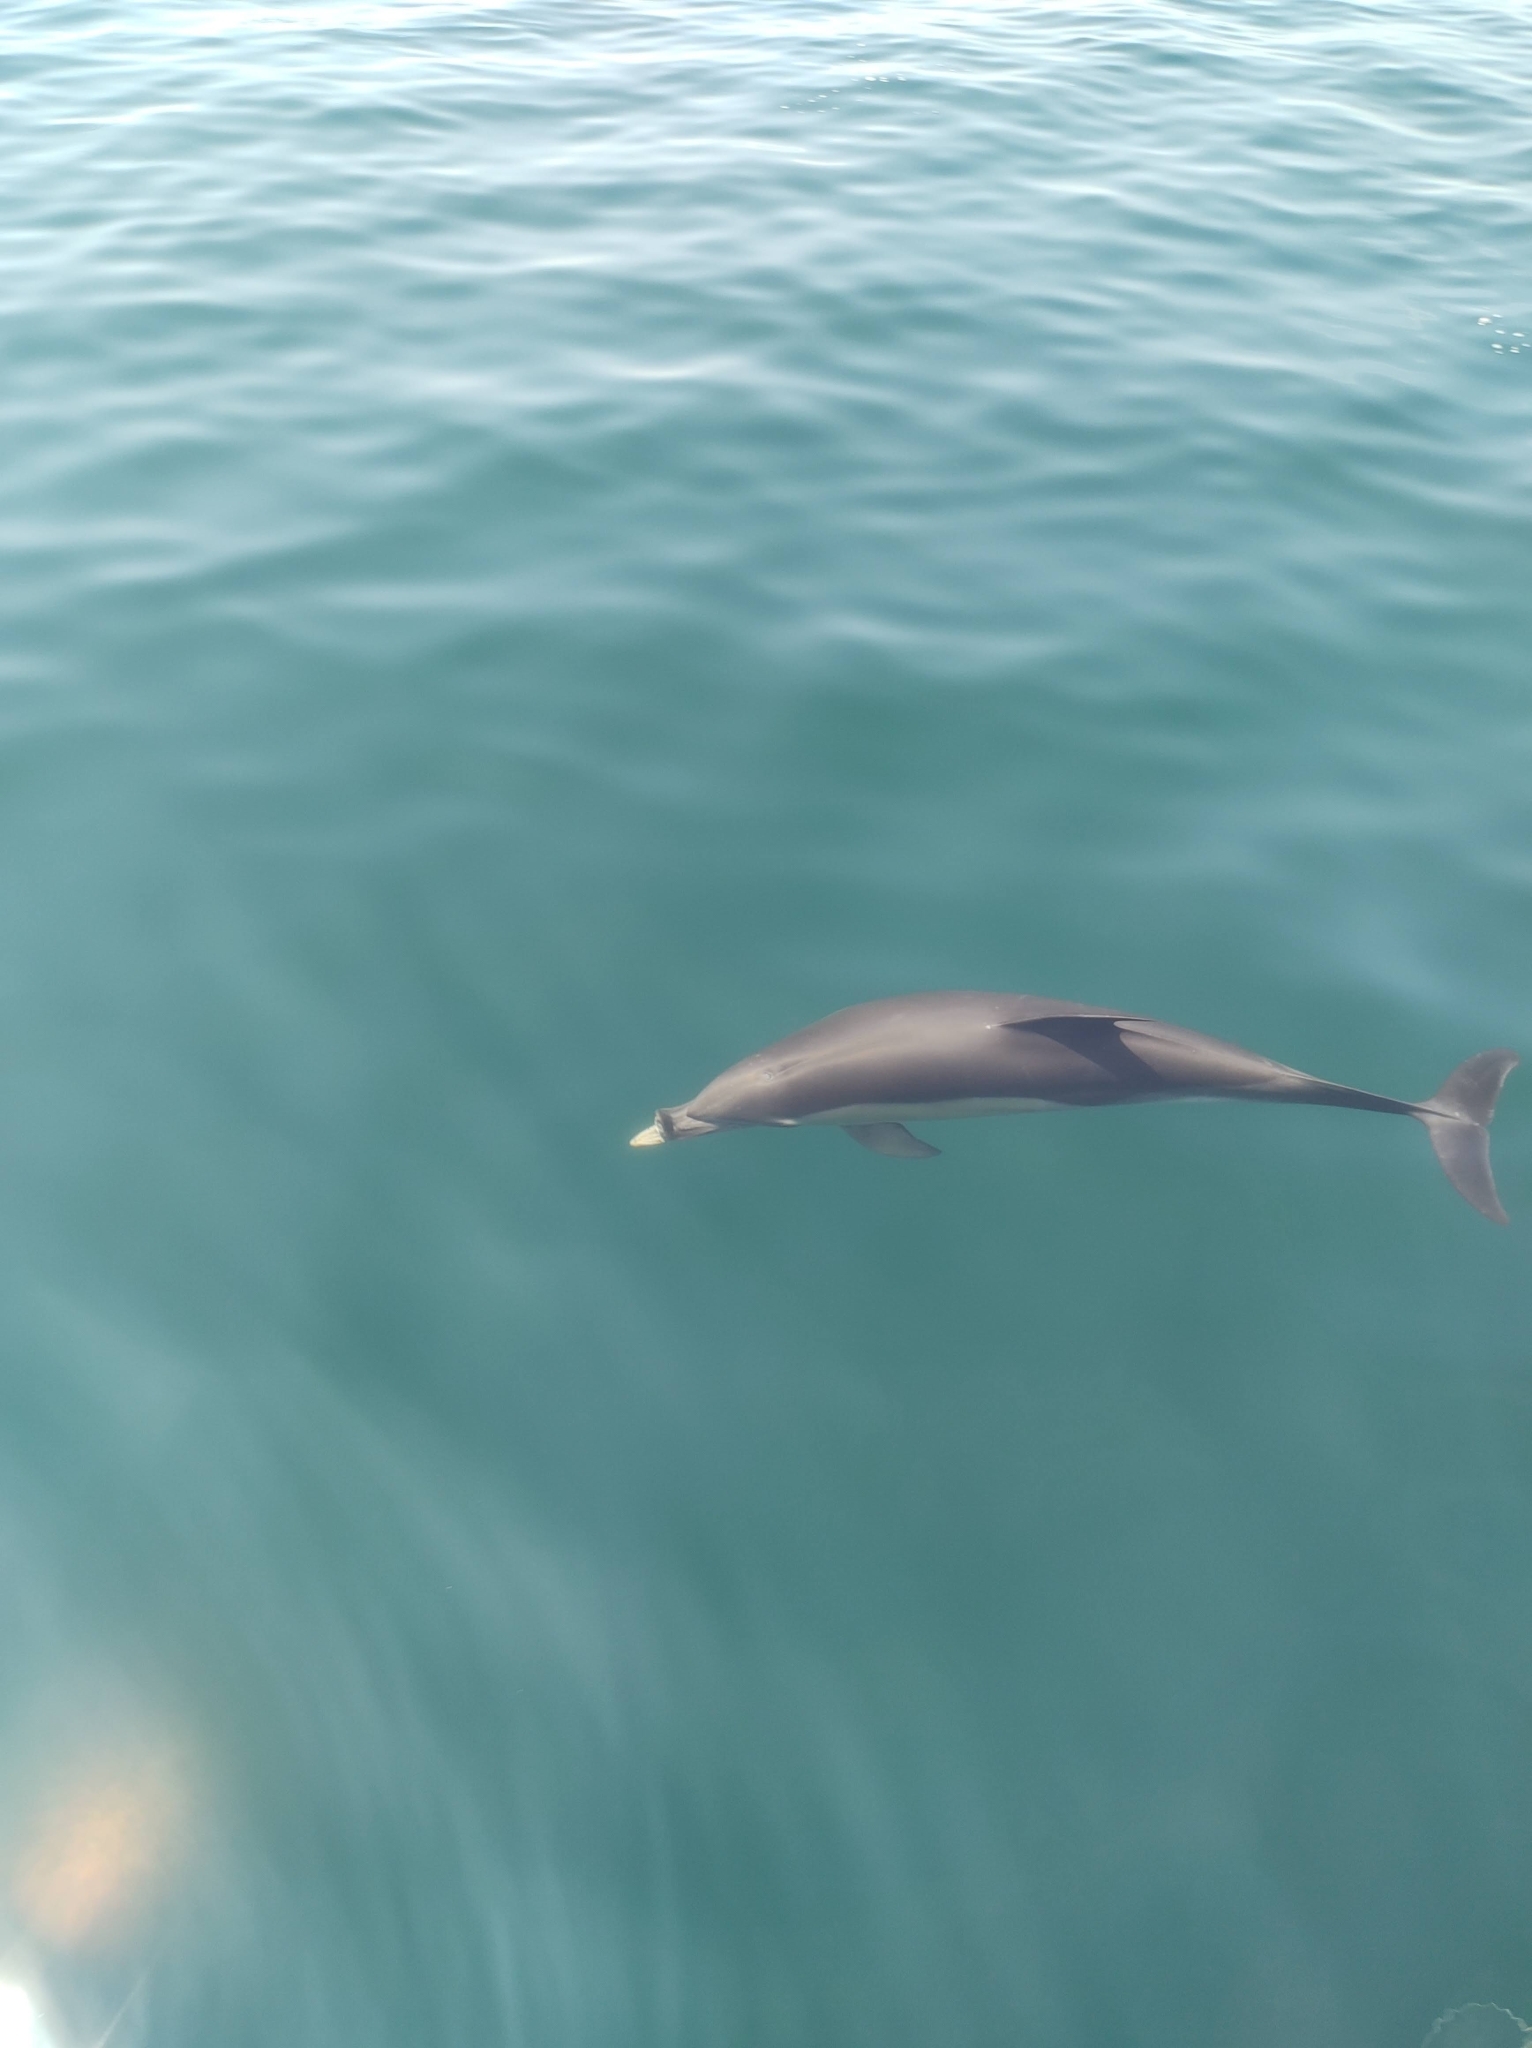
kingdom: Animalia
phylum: Chordata
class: Mammalia
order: Cetacea
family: Delphinidae
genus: Delphinus
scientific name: Delphinus delphis
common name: Common dolphin
